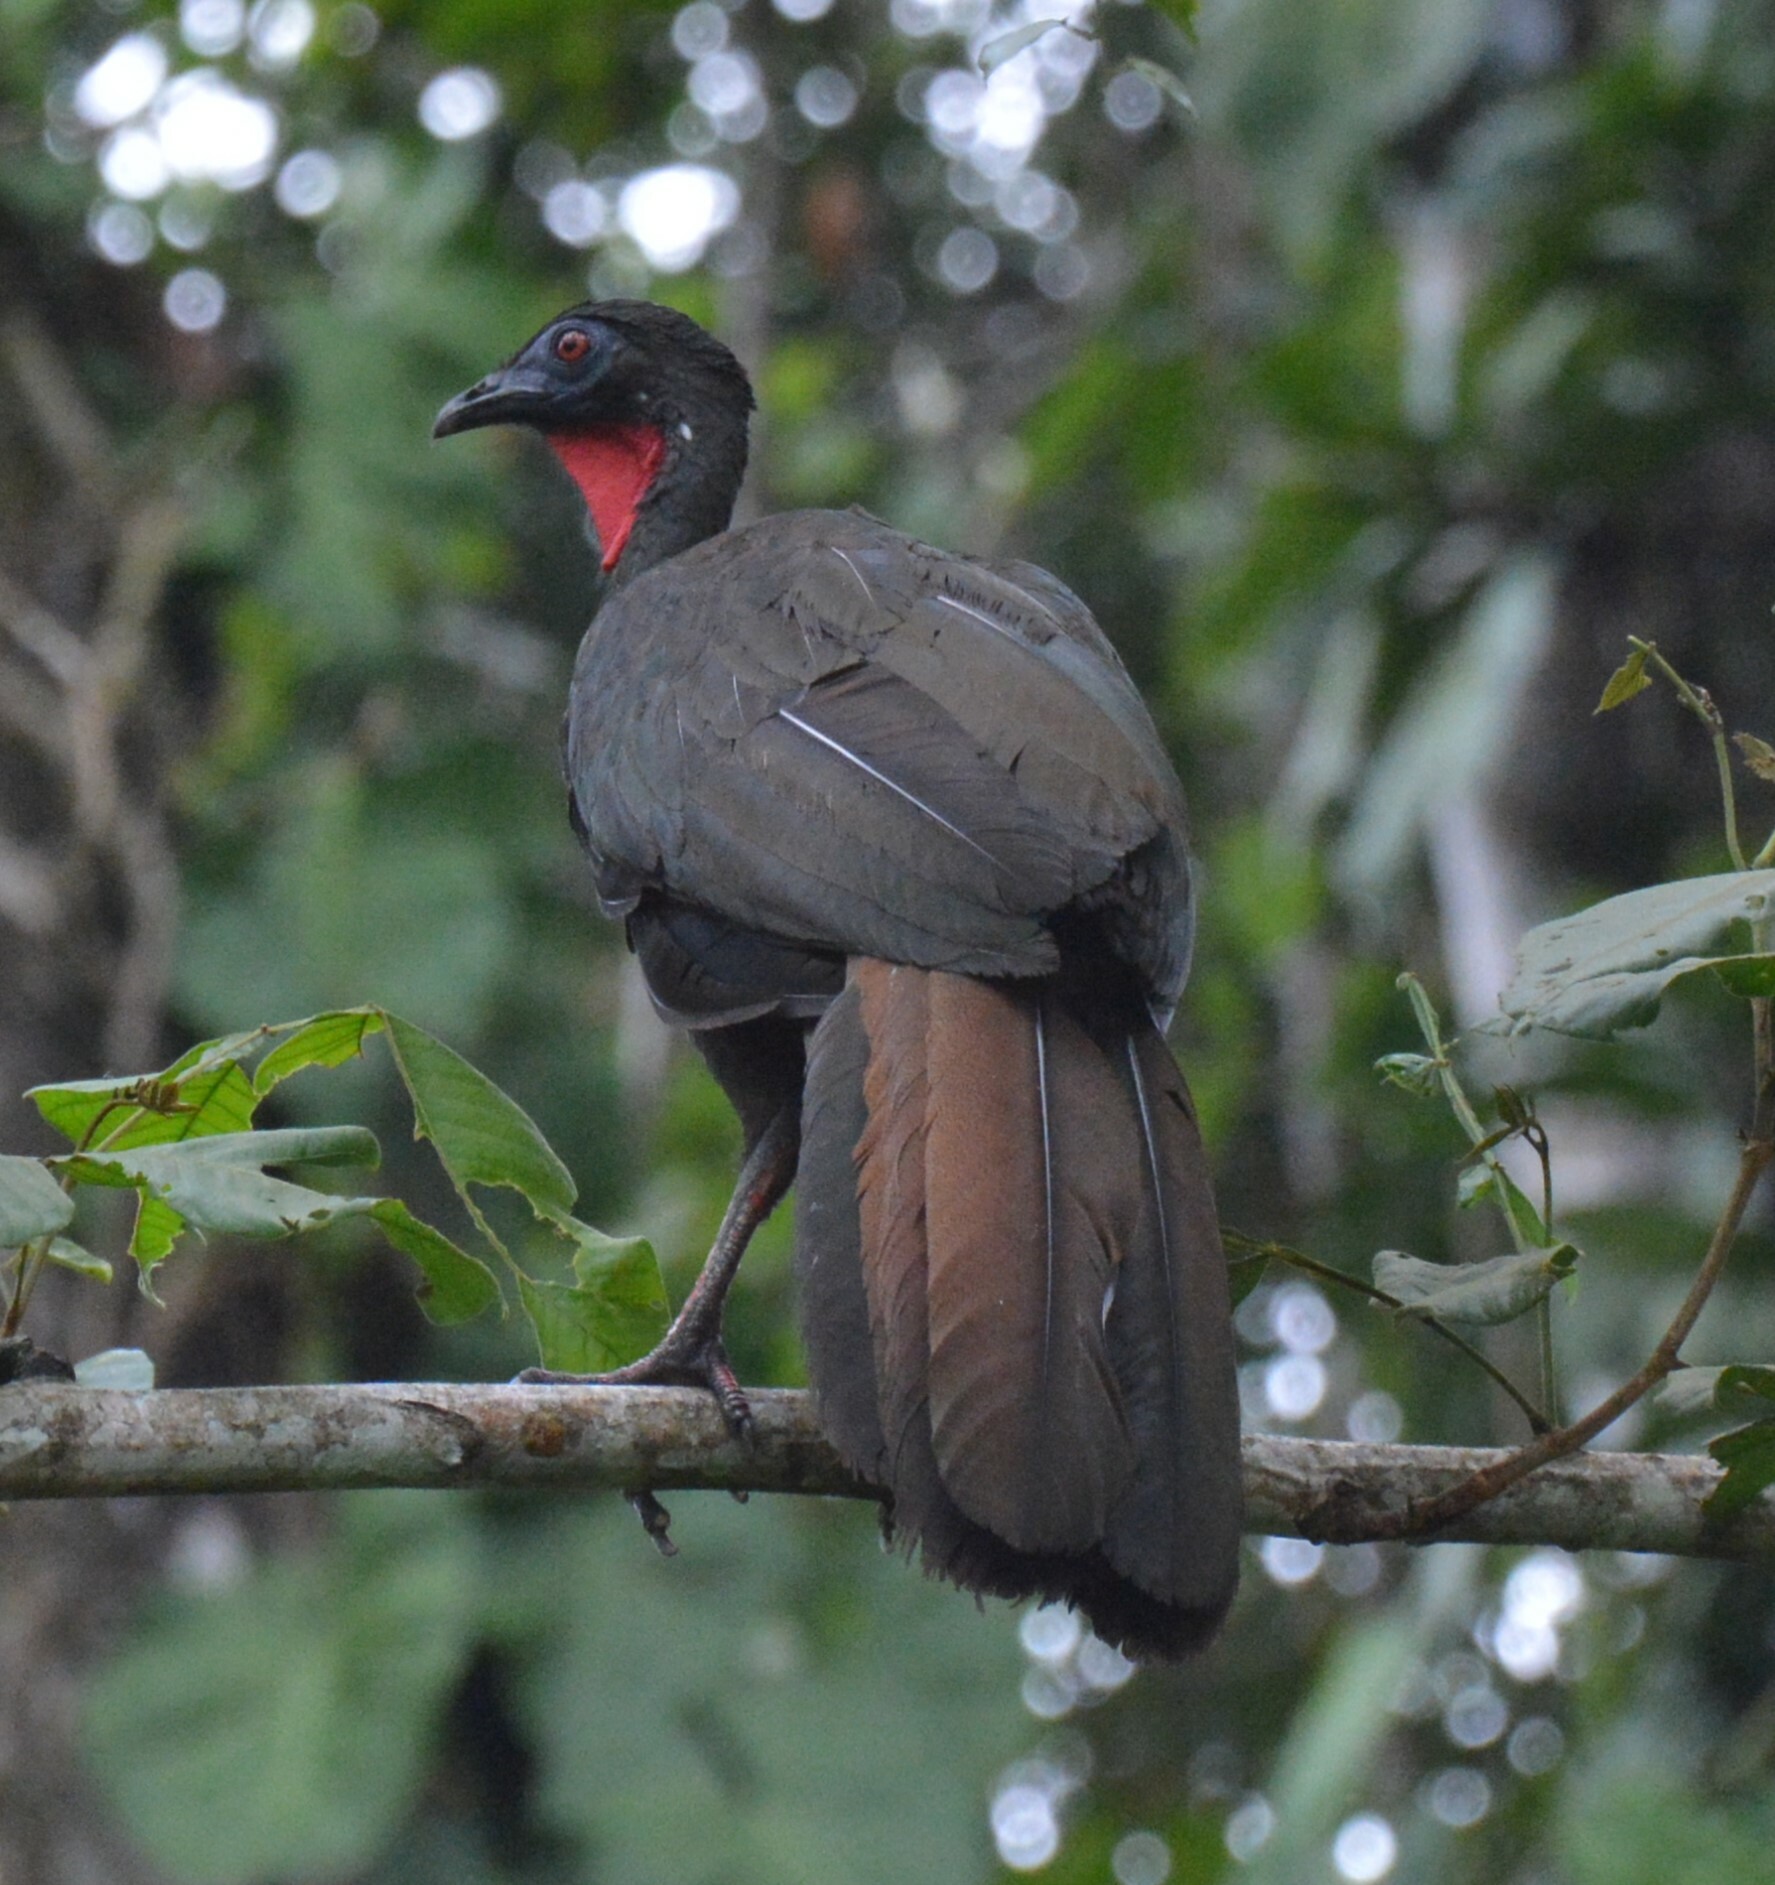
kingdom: Animalia
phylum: Chordata
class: Aves
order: Galliformes
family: Cracidae
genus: Penelope
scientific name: Penelope purpurascens
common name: Crested guan
